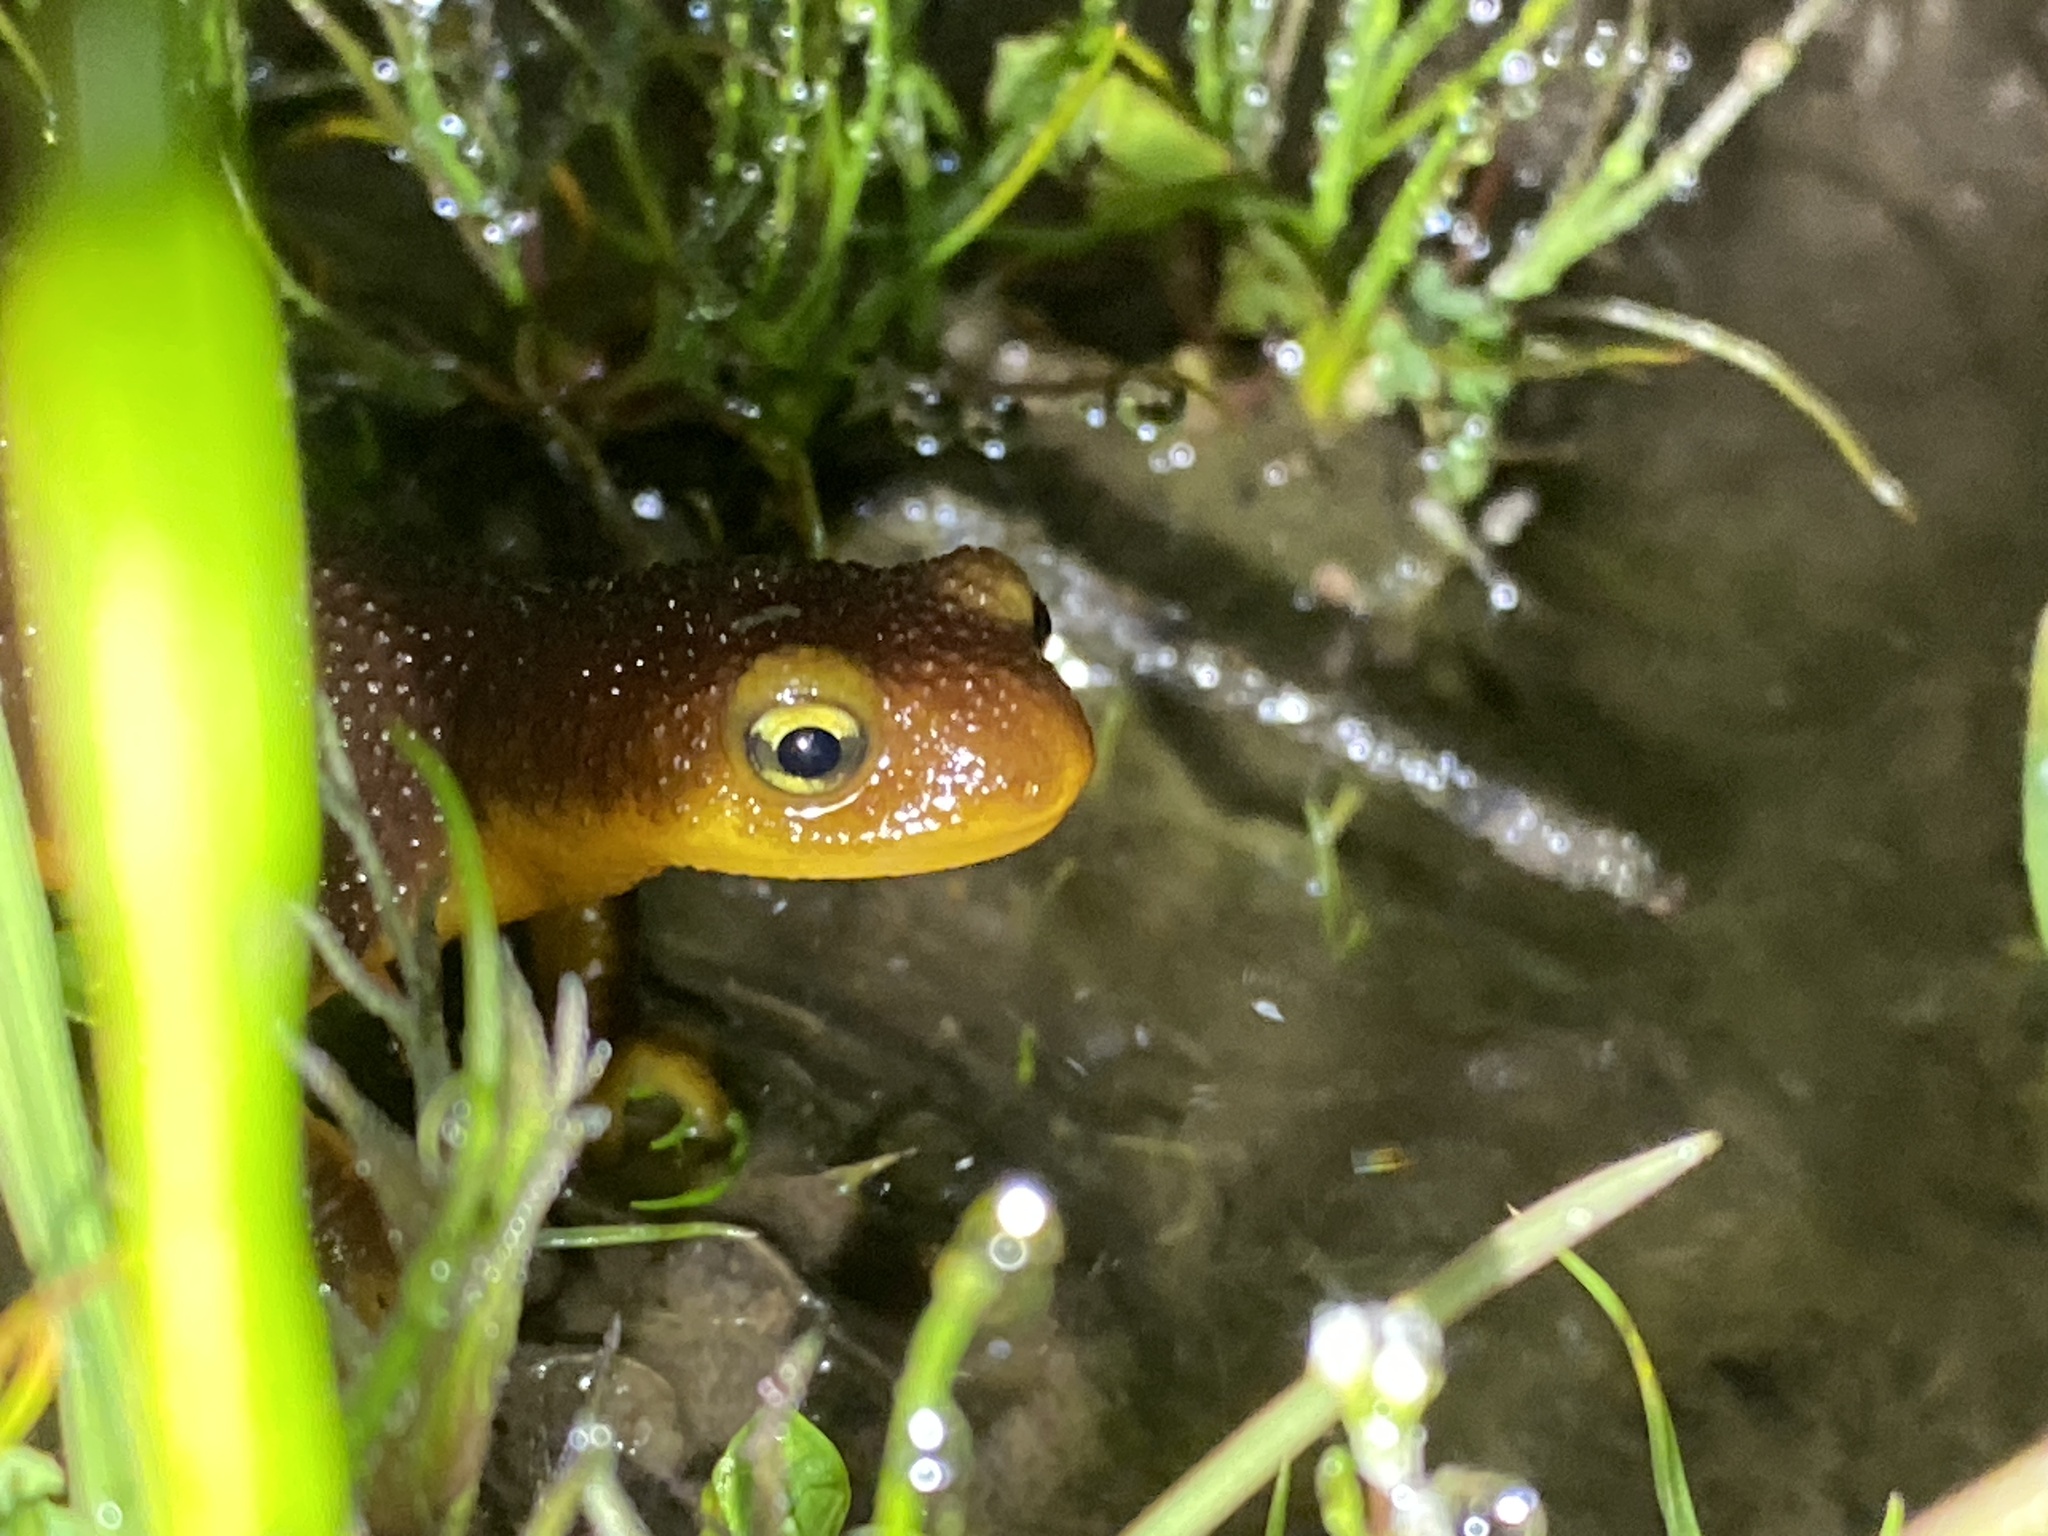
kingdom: Animalia
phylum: Chordata
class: Amphibia
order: Caudata
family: Salamandridae
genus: Taricha
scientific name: Taricha torosa
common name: California newt
